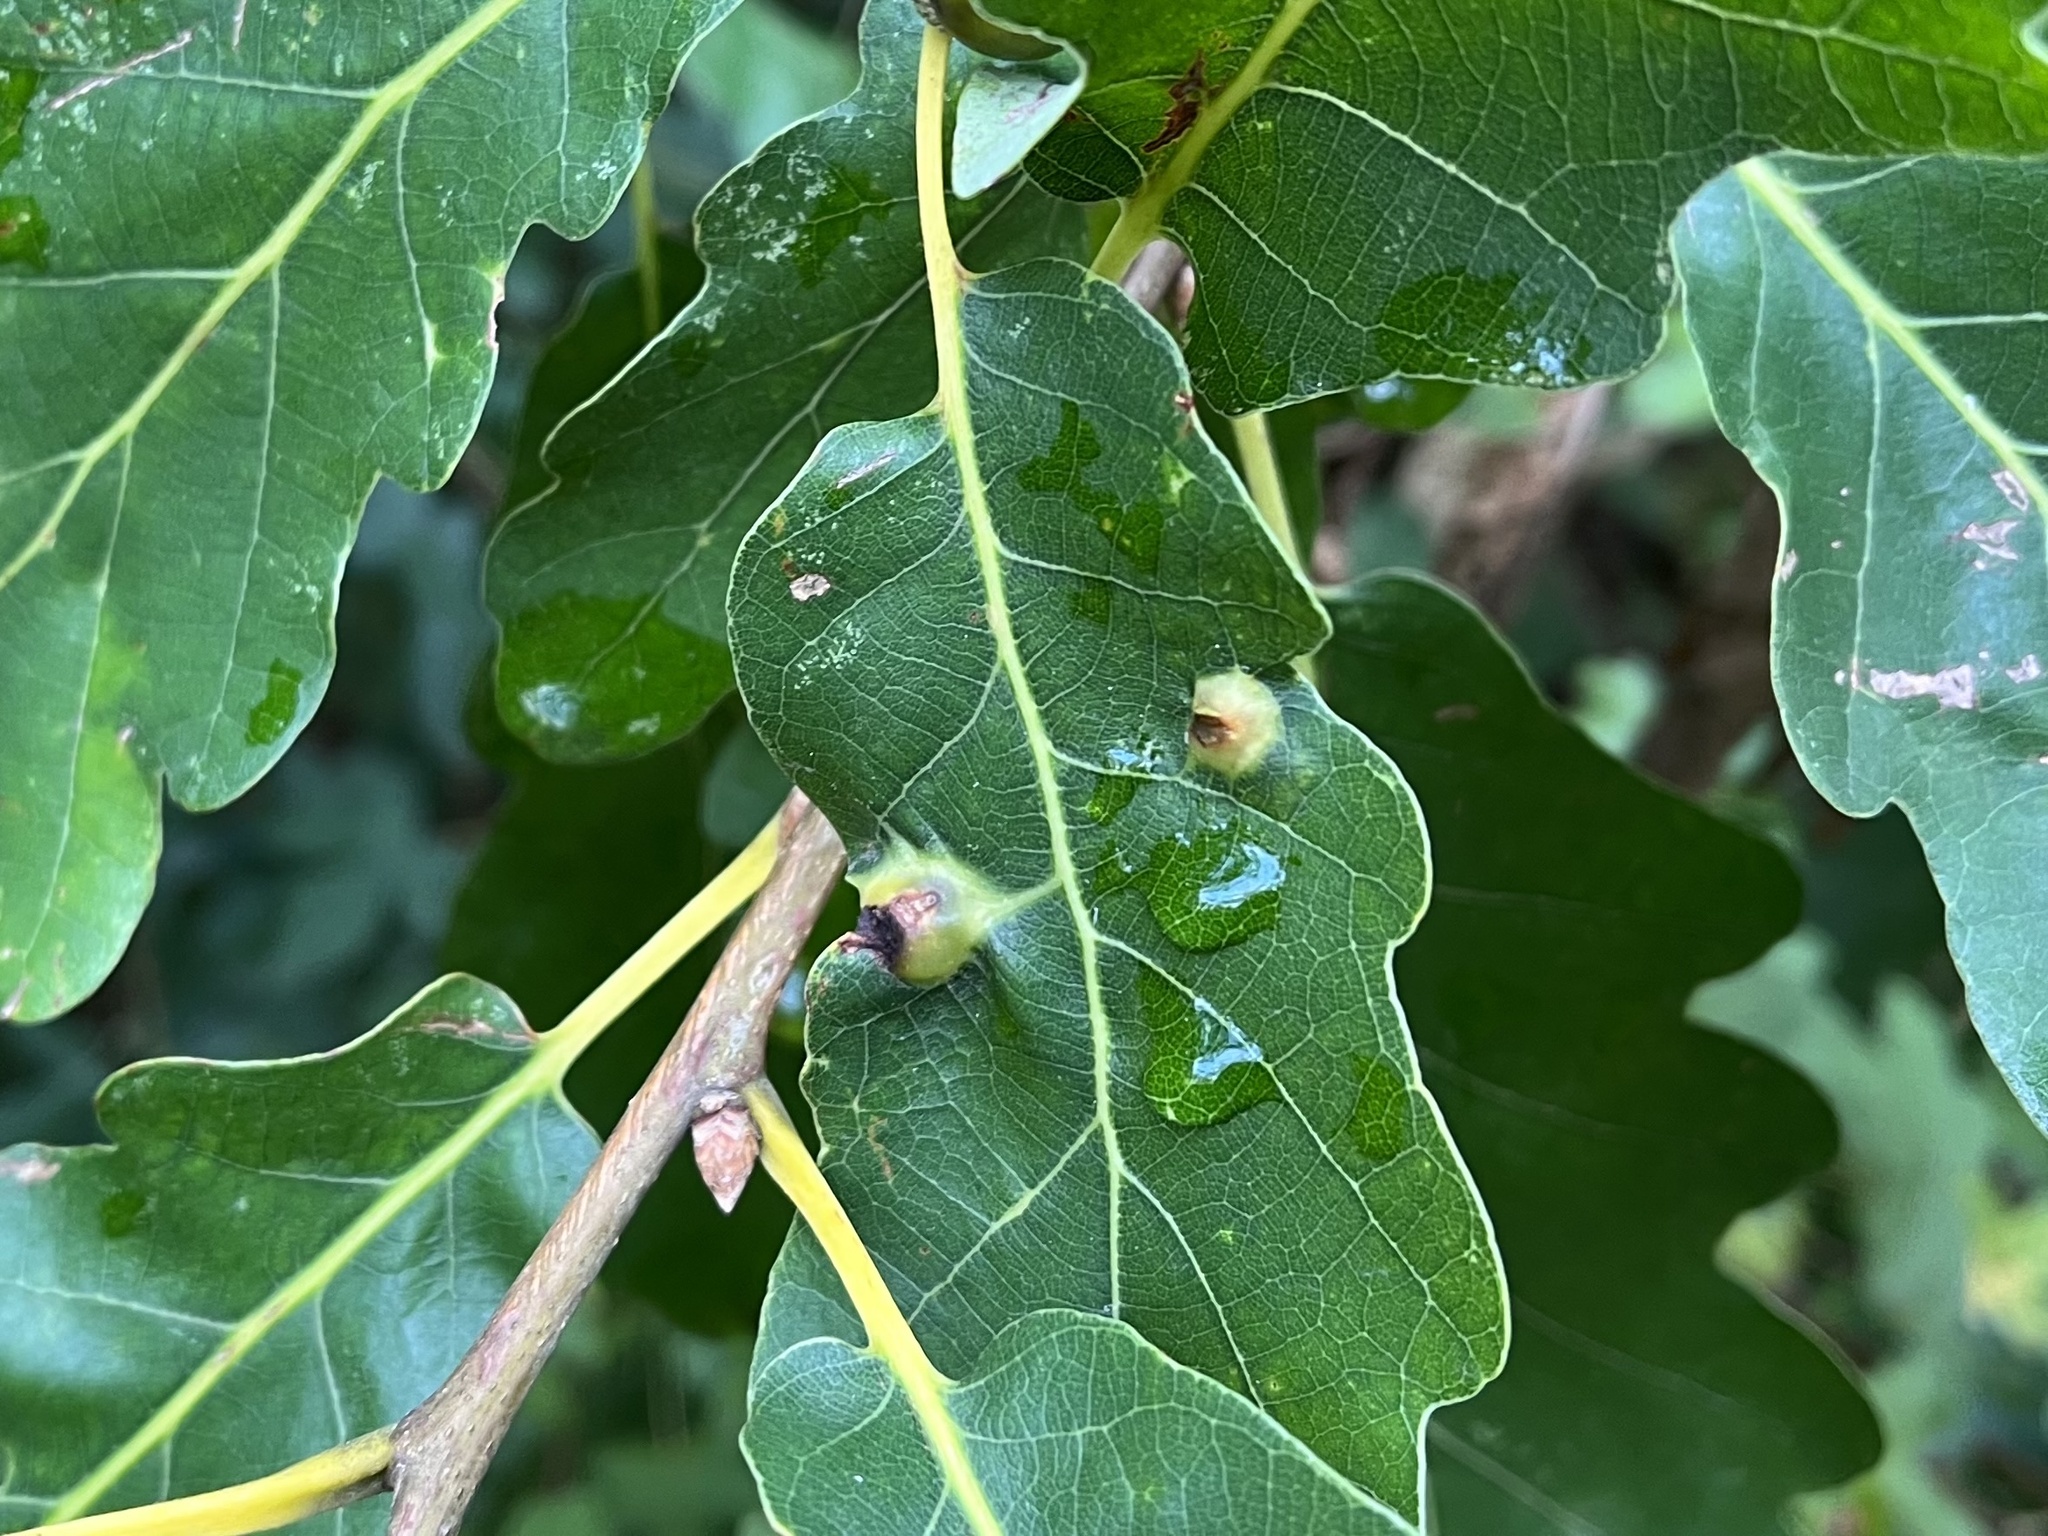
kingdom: Animalia
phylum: Arthropoda
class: Insecta
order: Hymenoptera
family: Cynipidae
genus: Andricus
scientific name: Andricus curvator
